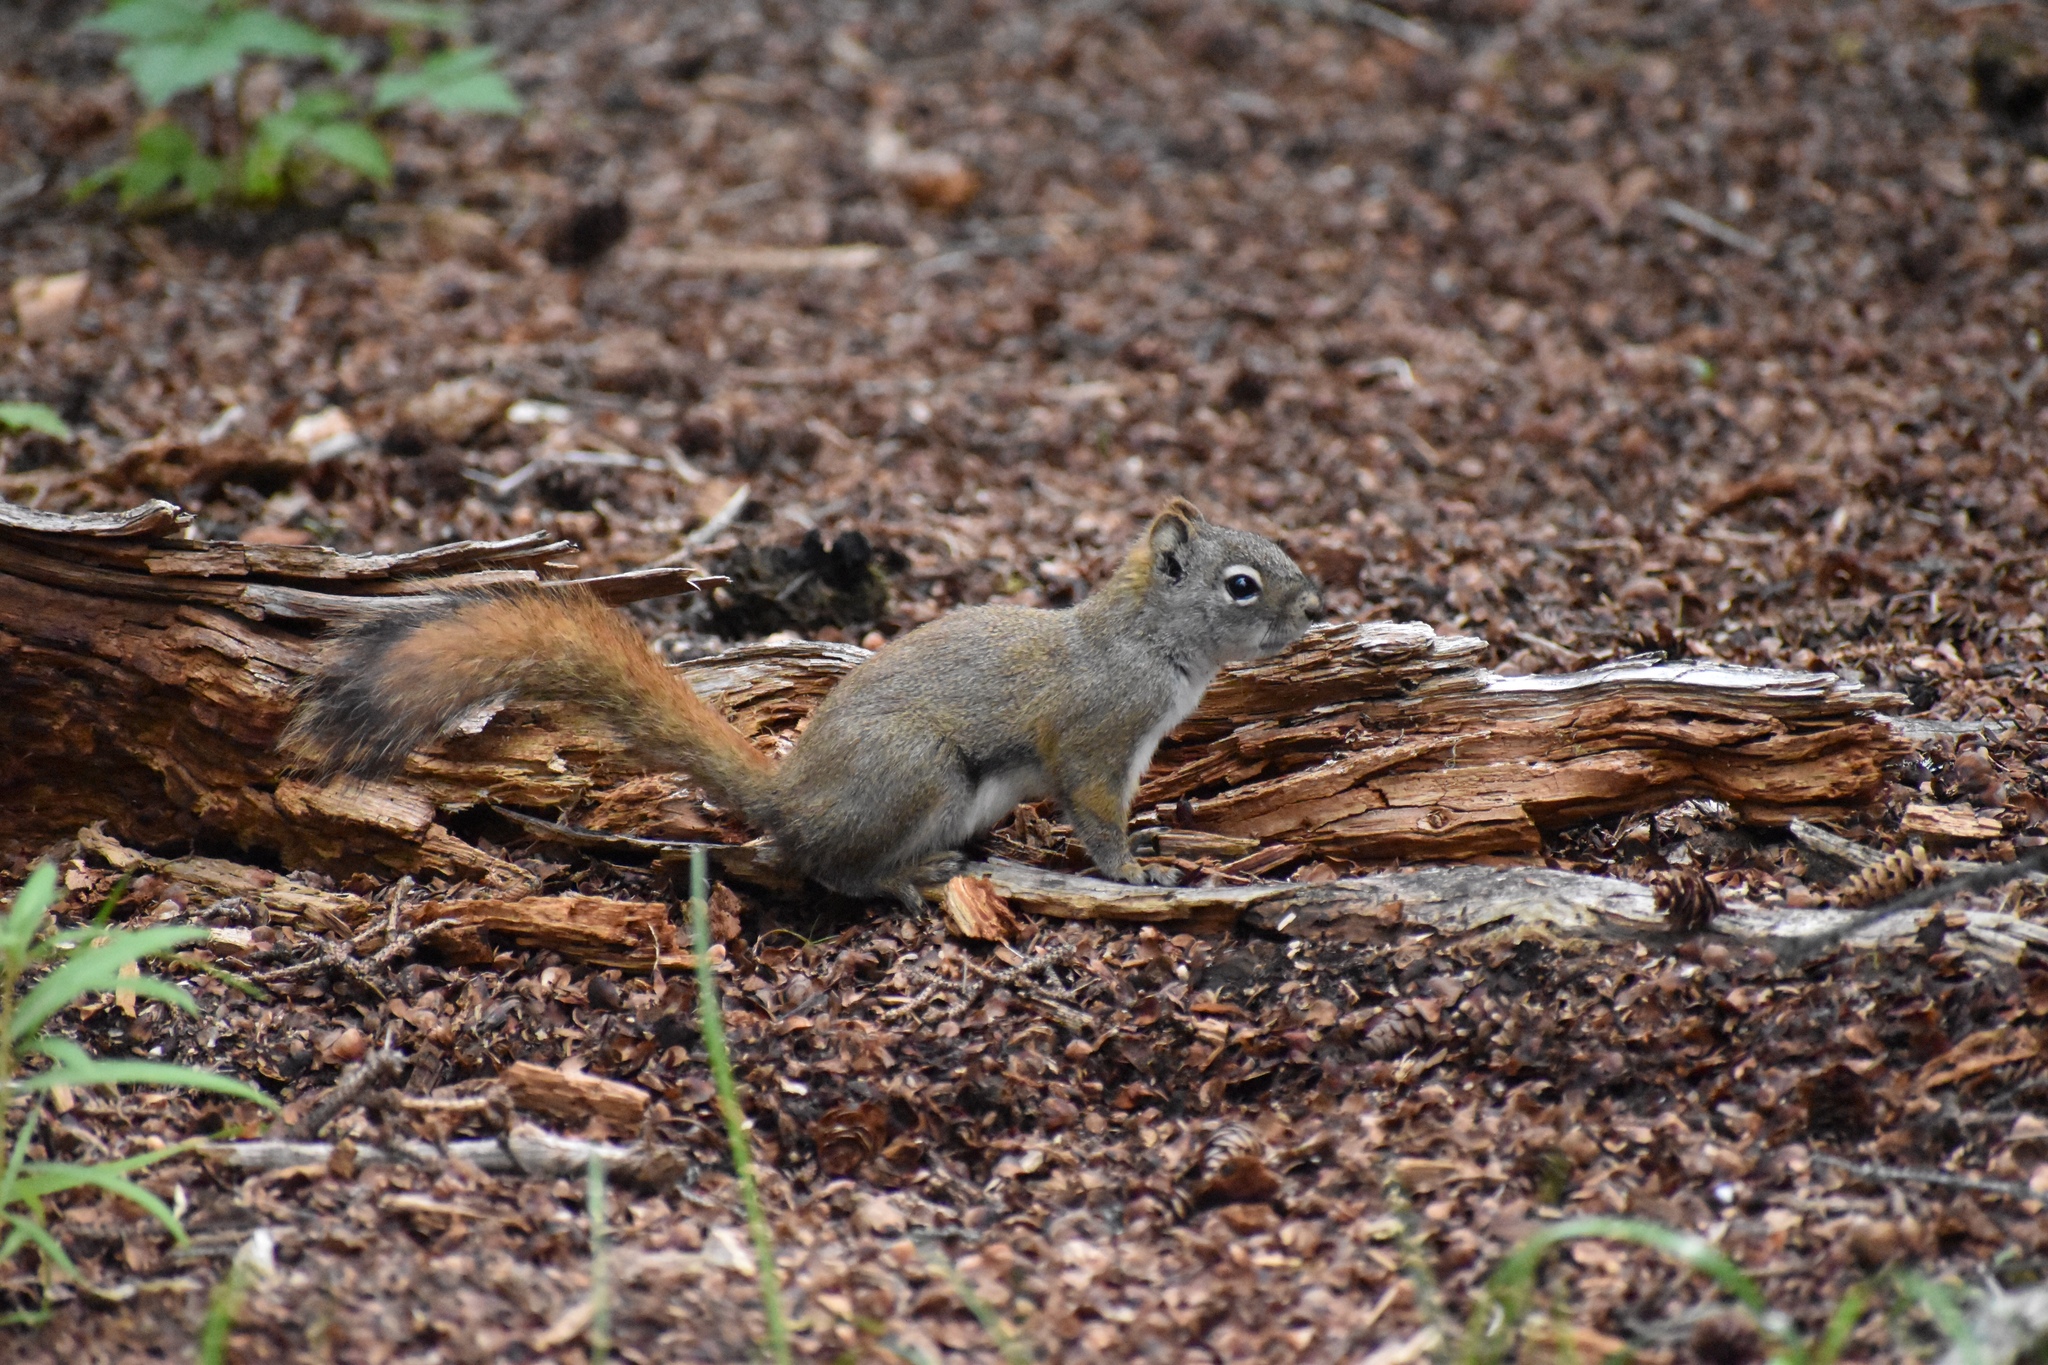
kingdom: Animalia
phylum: Chordata
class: Mammalia
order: Rodentia
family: Sciuridae
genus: Tamiasciurus
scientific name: Tamiasciurus hudsonicus
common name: Red squirrel
